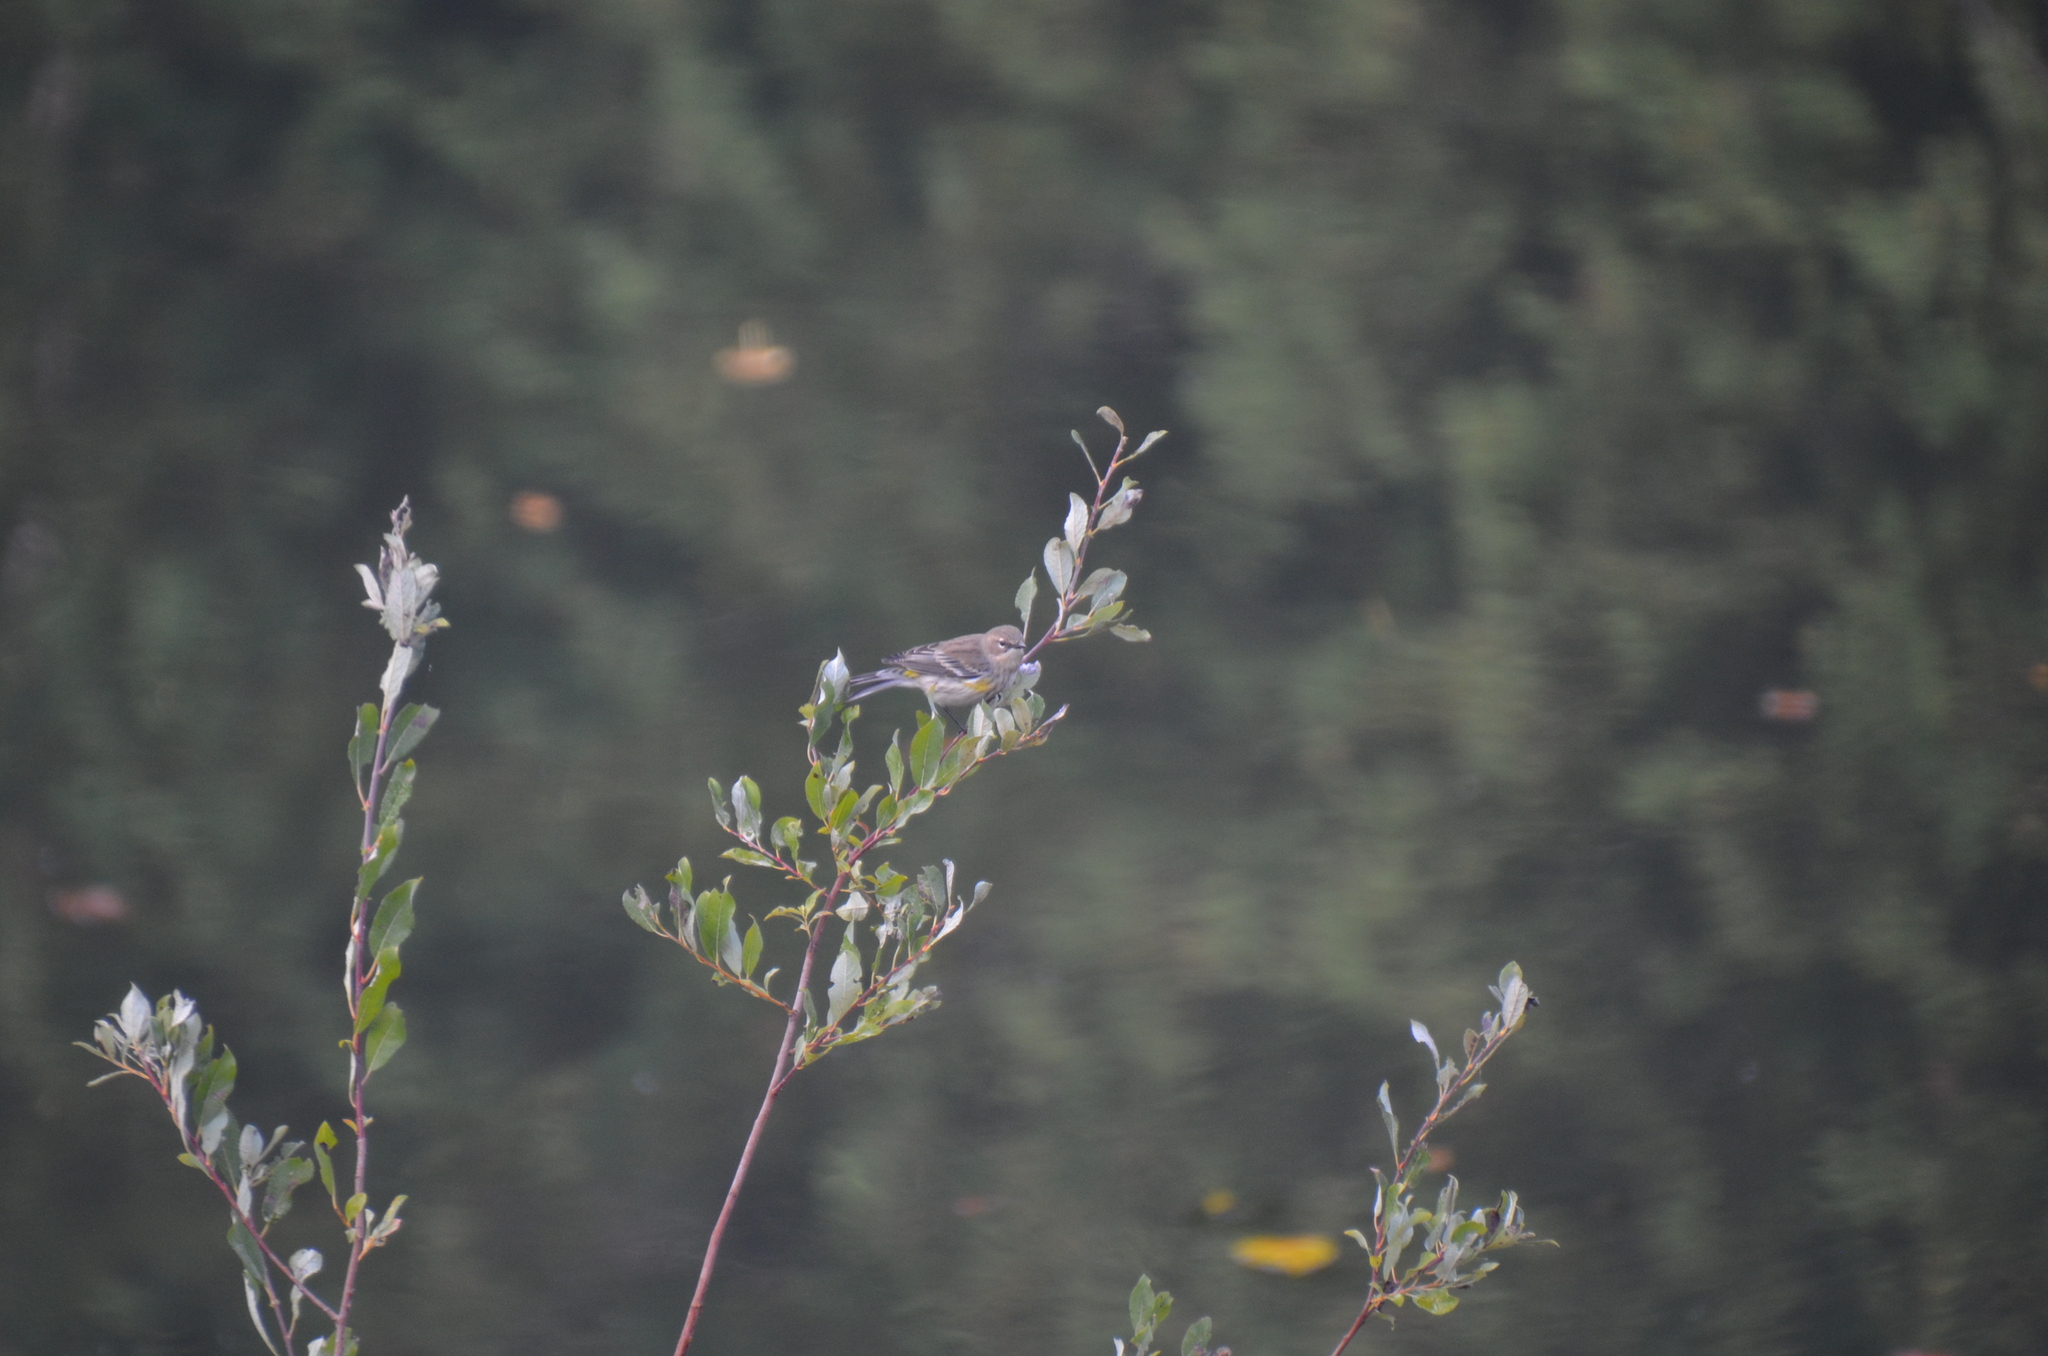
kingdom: Animalia
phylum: Chordata
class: Aves
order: Passeriformes
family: Parulidae
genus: Setophaga
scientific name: Setophaga coronata
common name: Myrtle warbler
